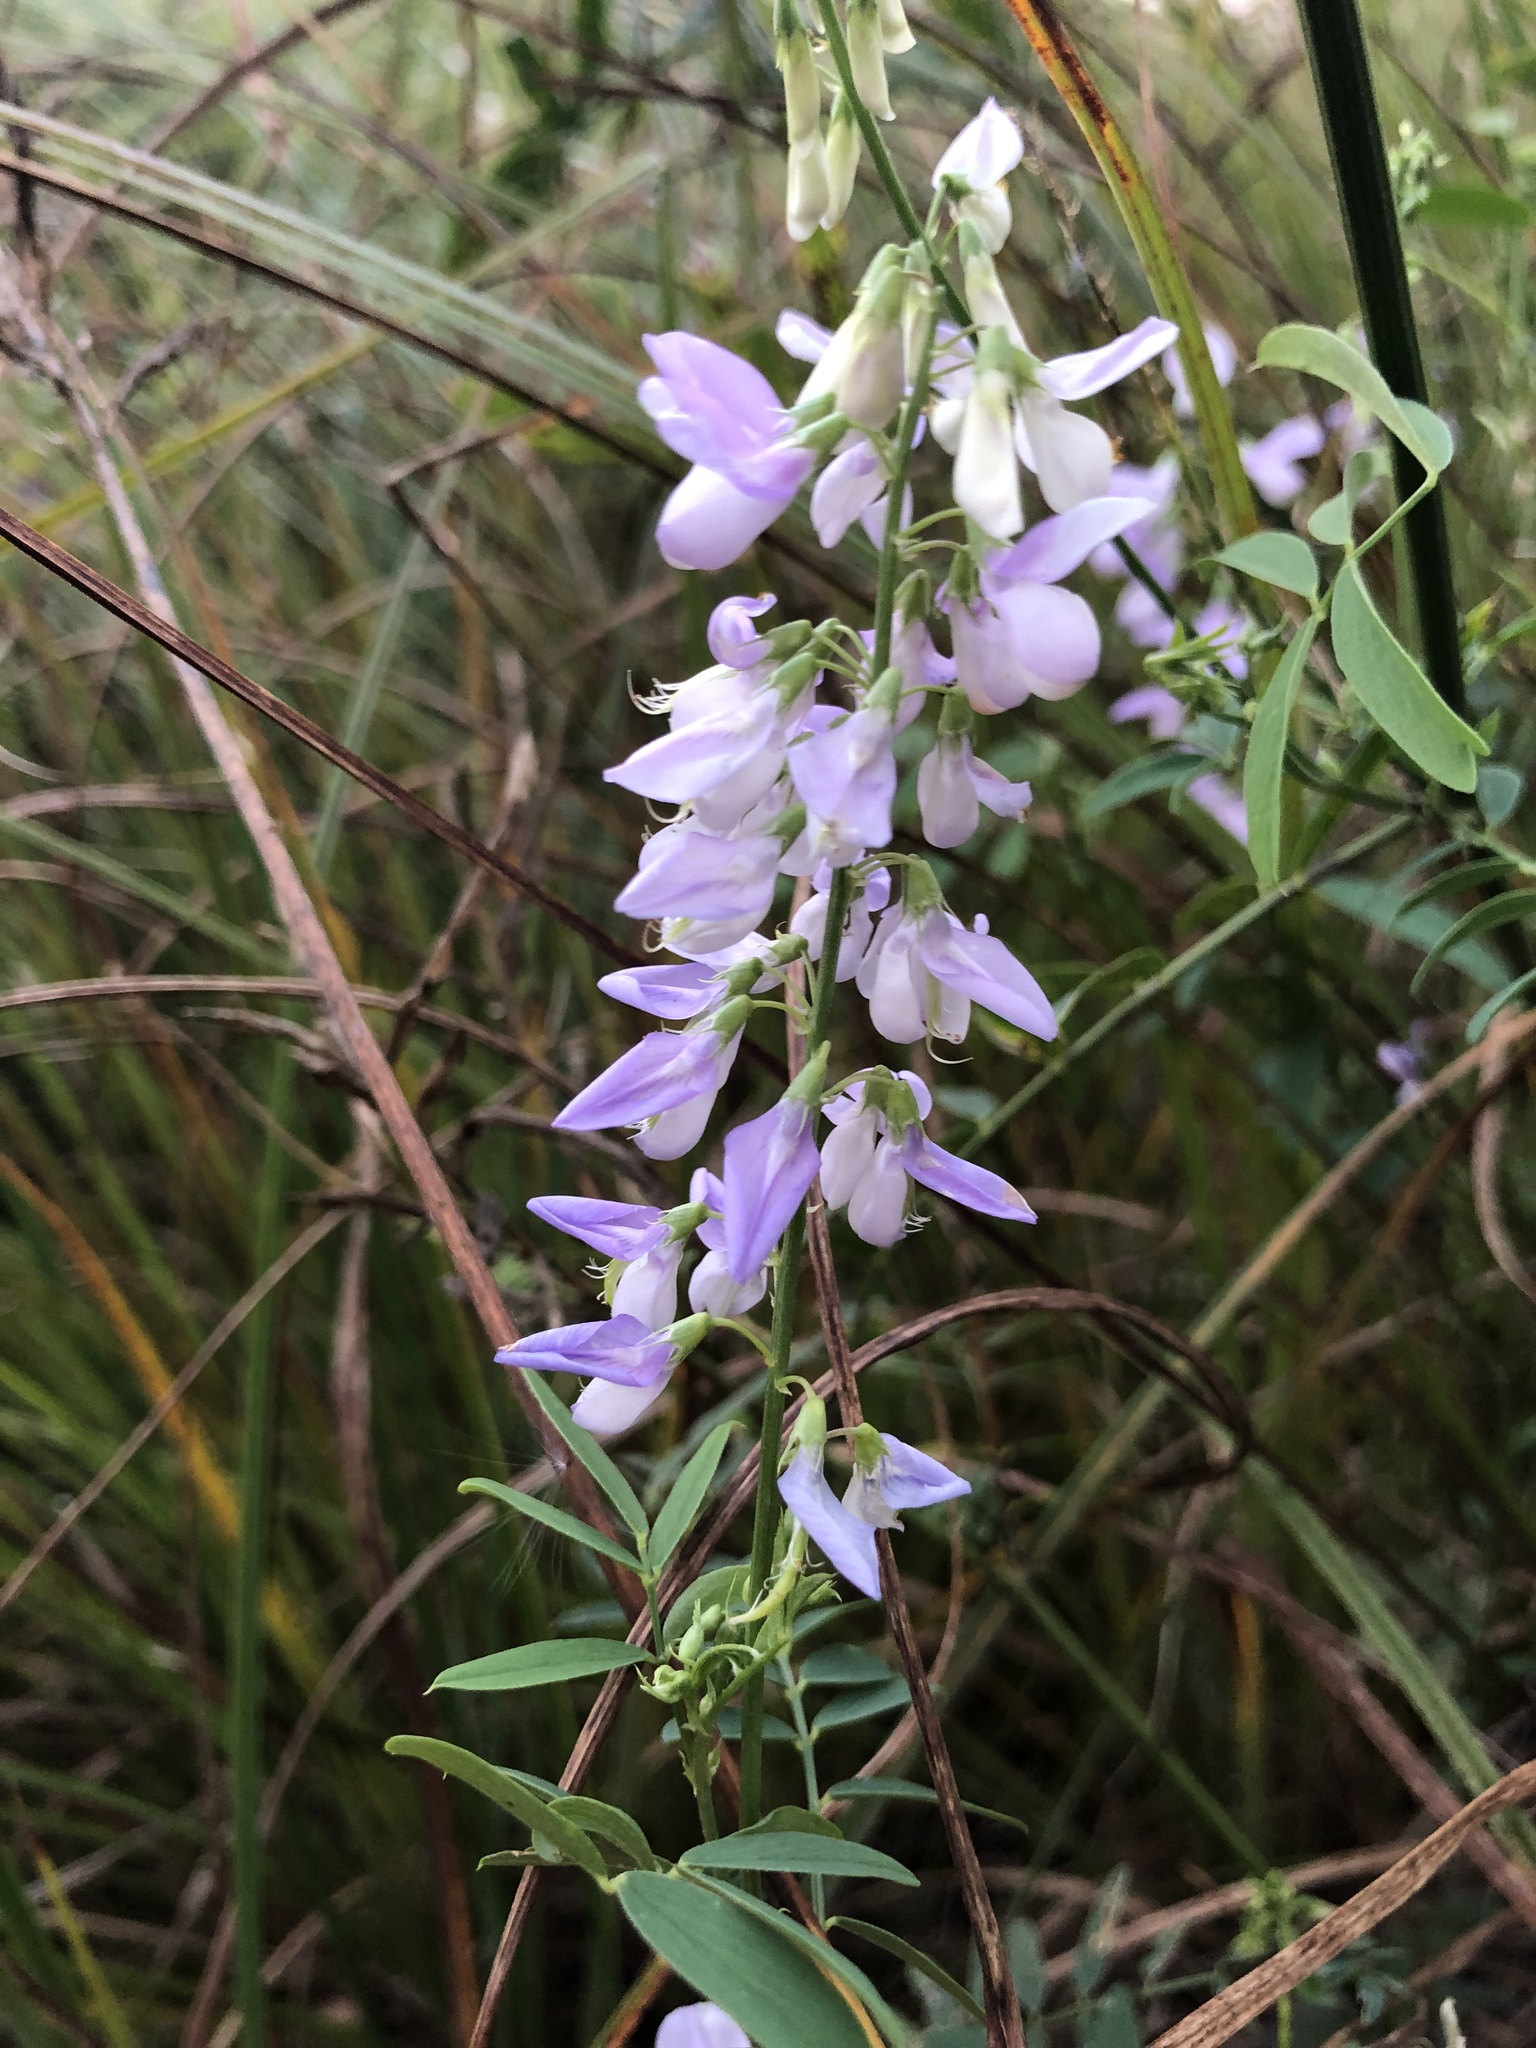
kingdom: Plantae
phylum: Tracheophyta
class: Magnoliopsida
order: Fabales
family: Fabaceae
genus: Galega
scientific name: Galega officinalis
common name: Goat's-rue
